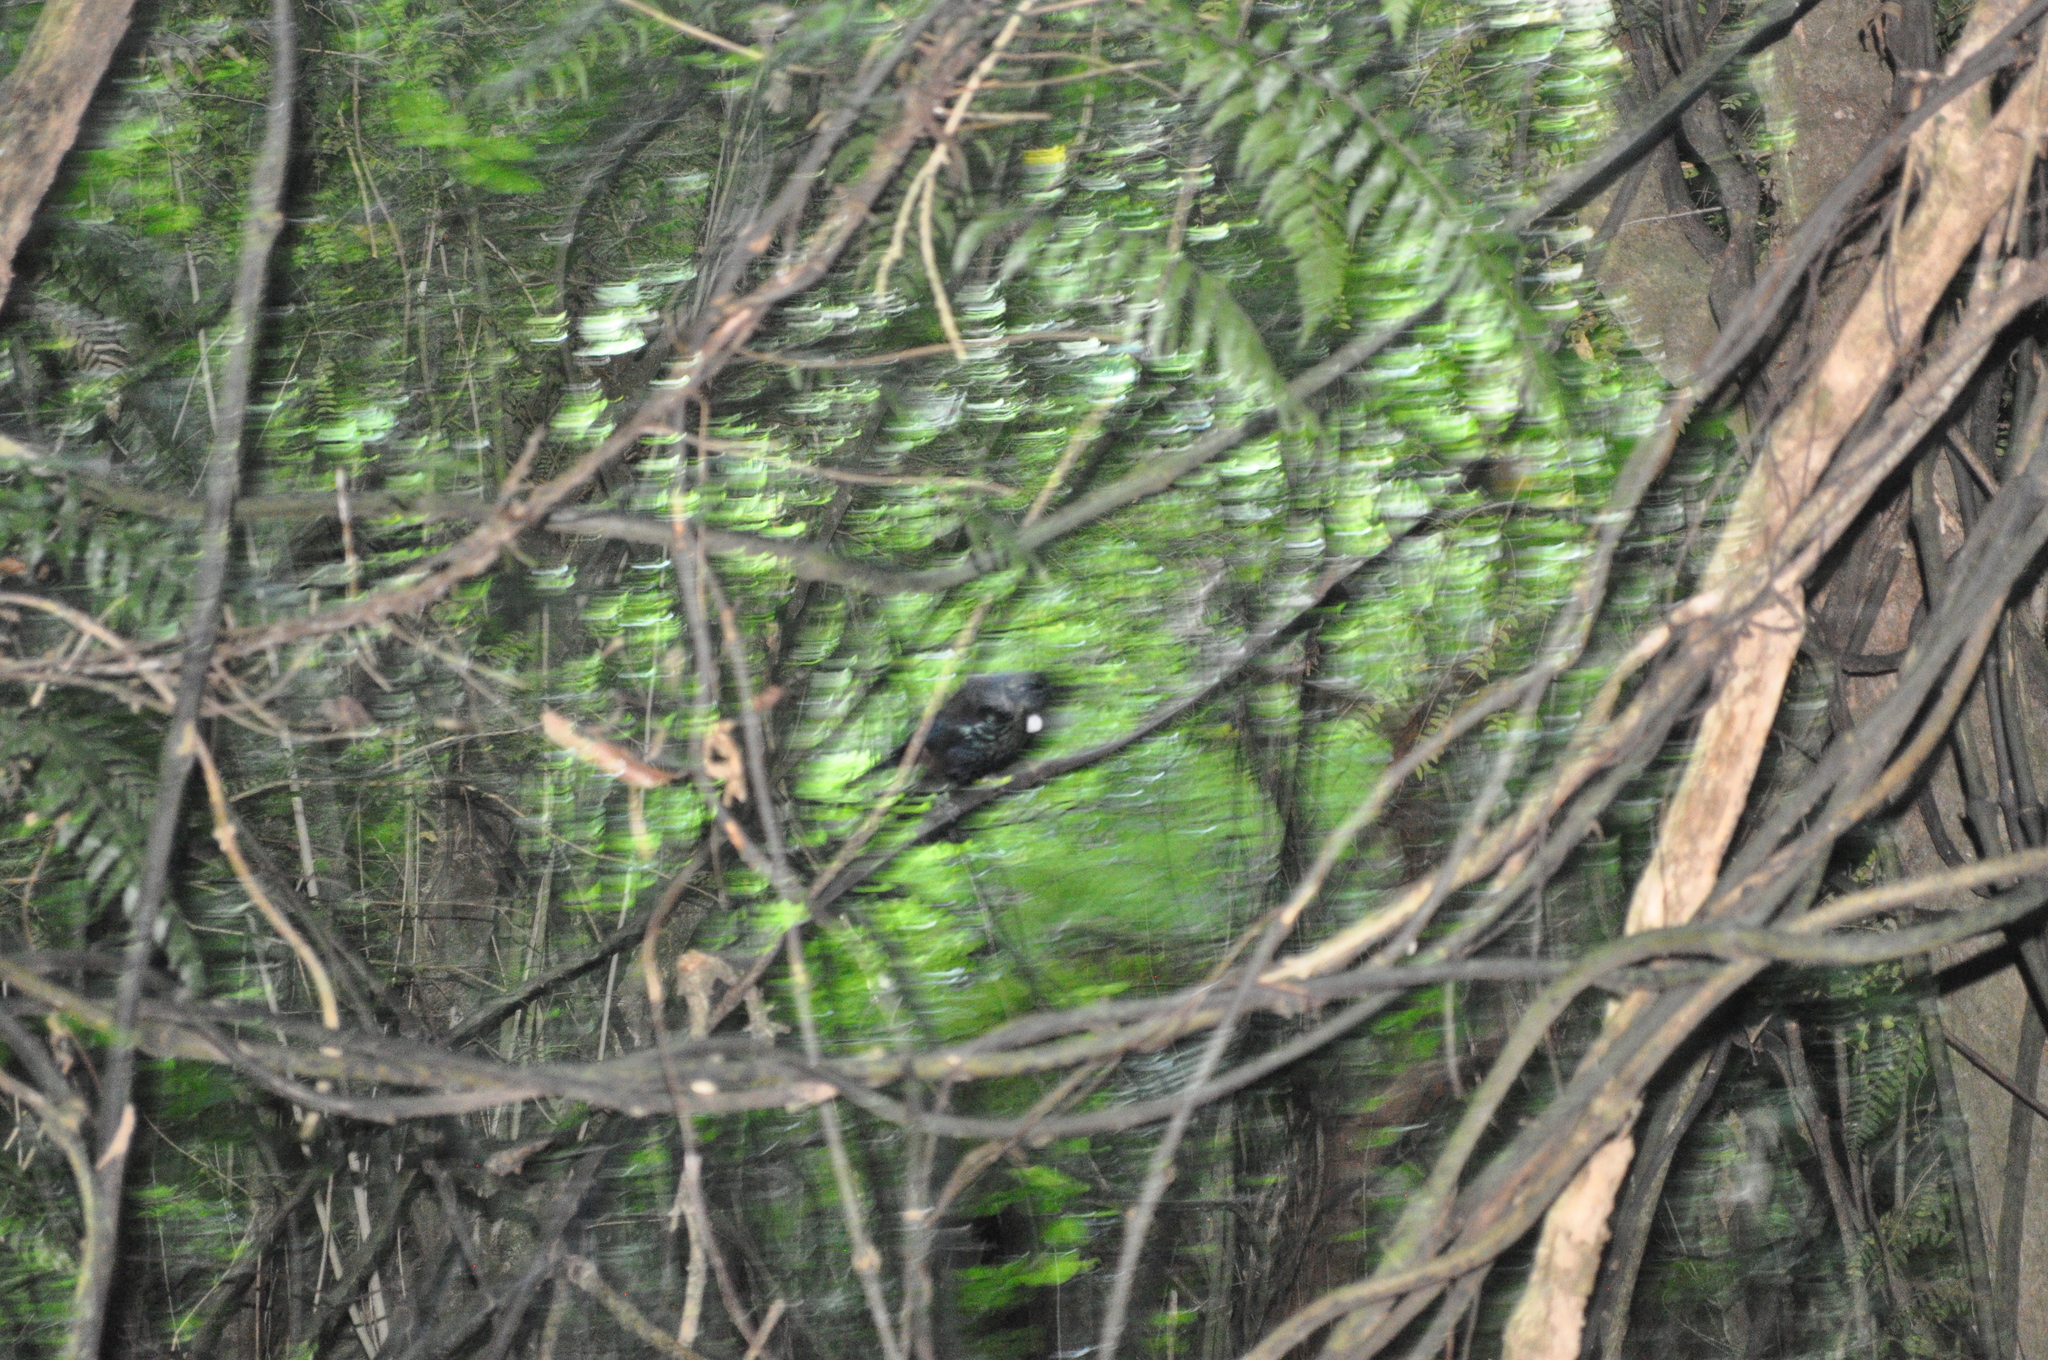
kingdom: Animalia
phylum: Chordata
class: Aves
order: Passeriformes
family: Meliphagidae
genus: Prosthemadera
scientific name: Prosthemadera novaeseelandiae
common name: Tui
